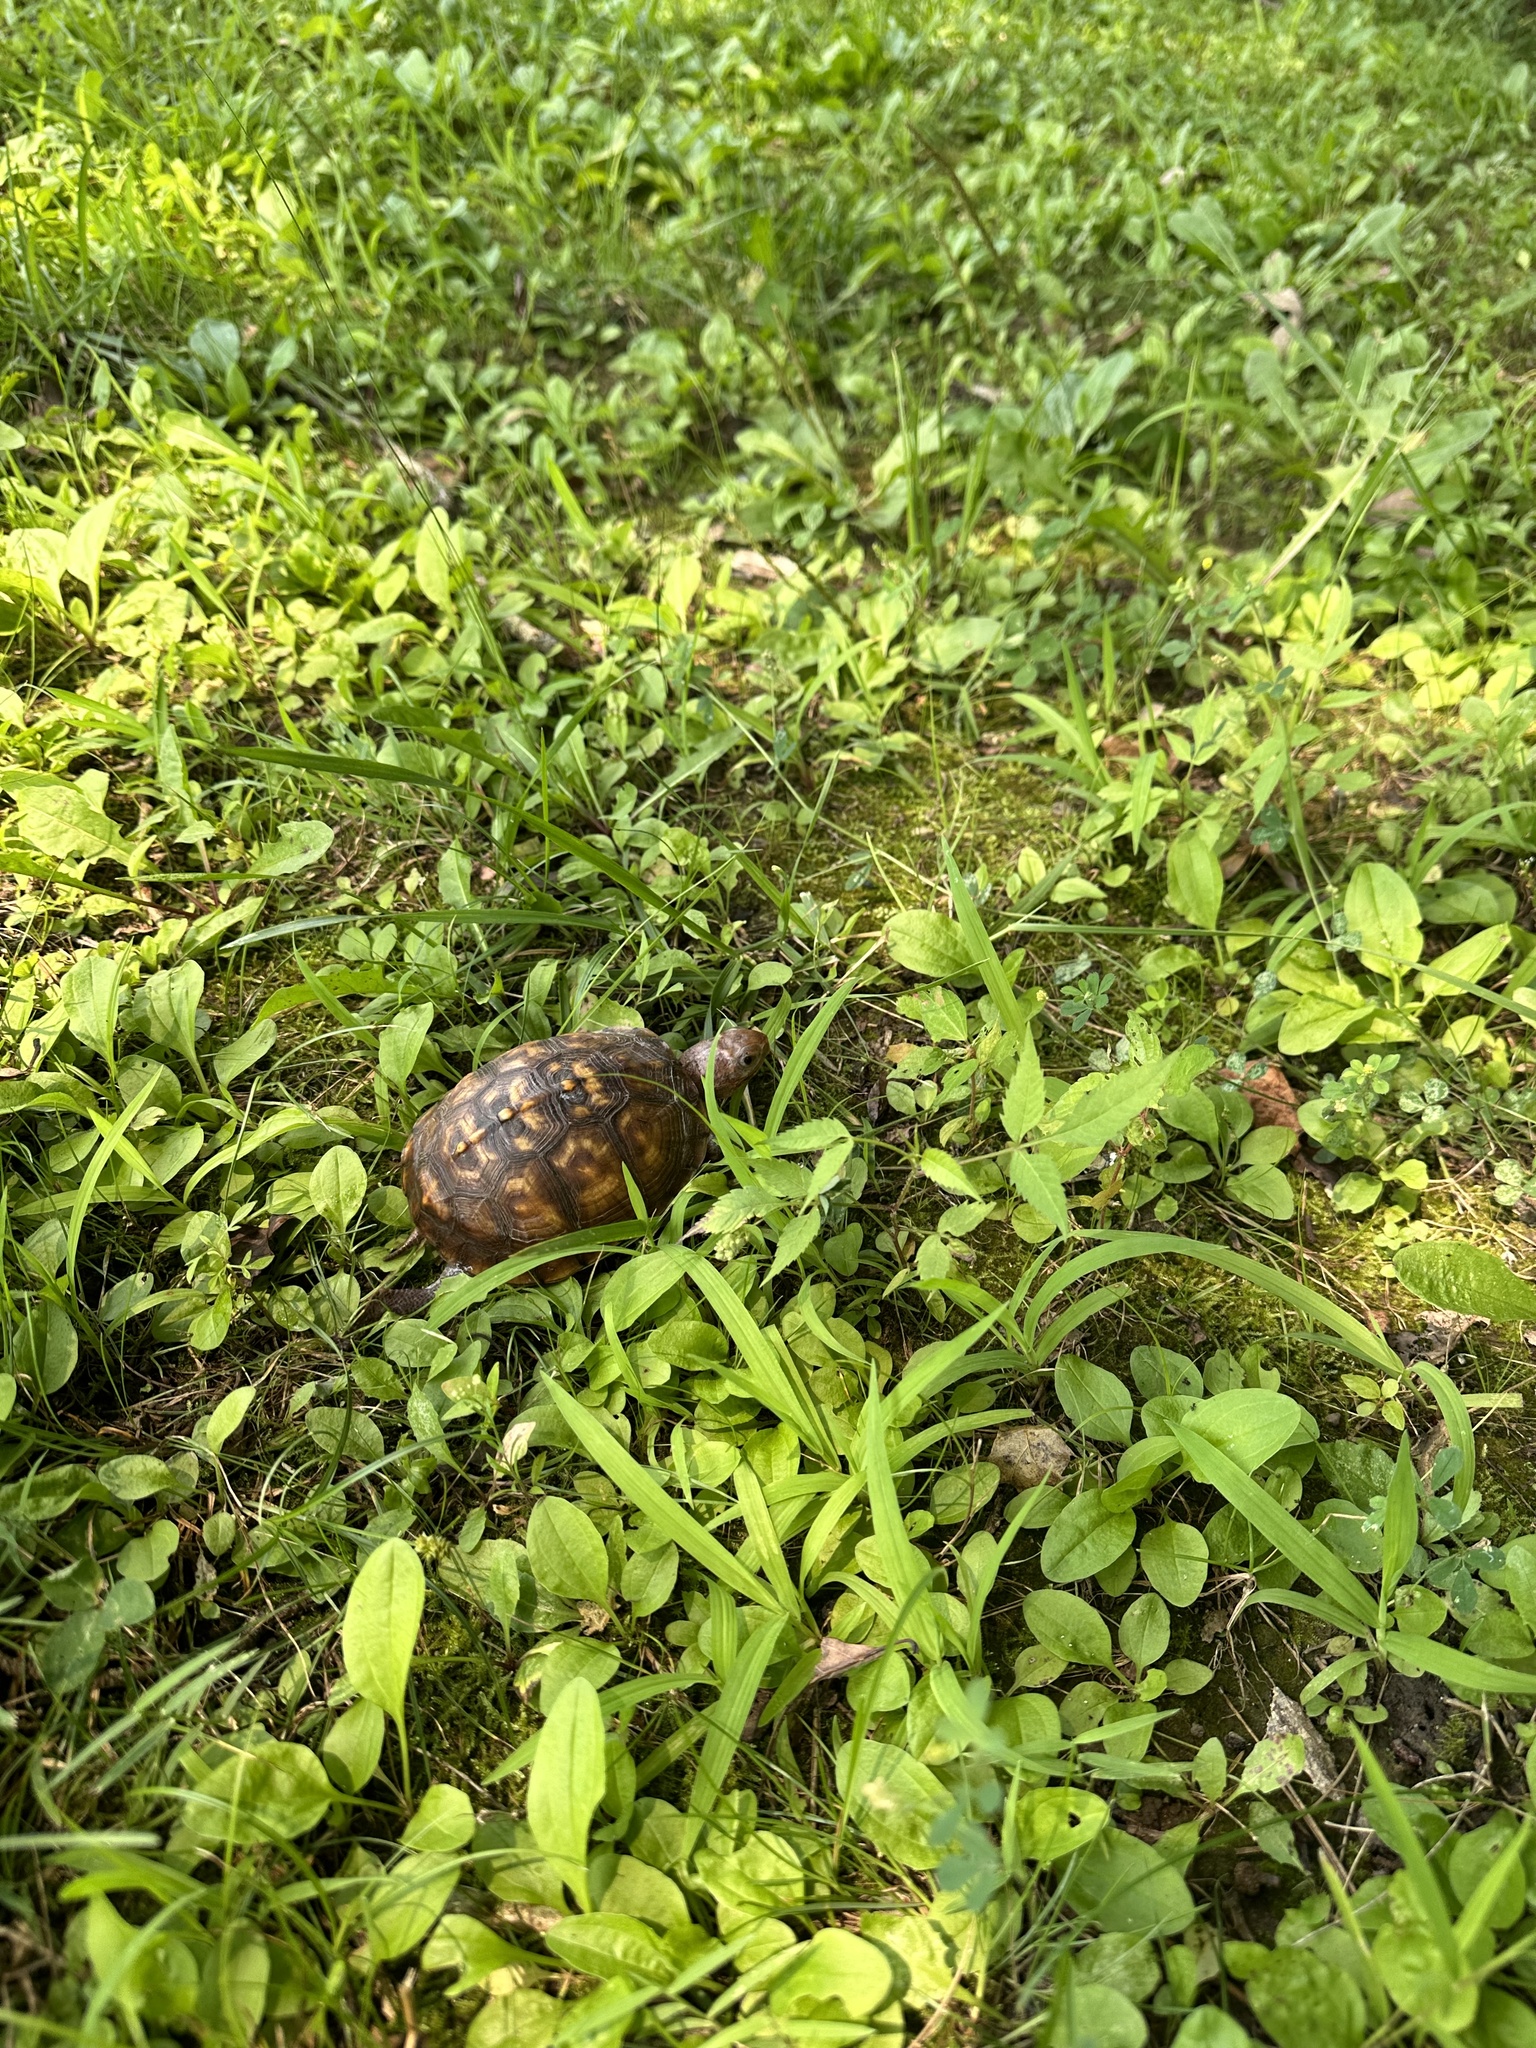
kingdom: Animalia
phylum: Chordata
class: Testudines
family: Emydidae
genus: Terrapene
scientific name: Terrapene carolina
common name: Common box turtle
